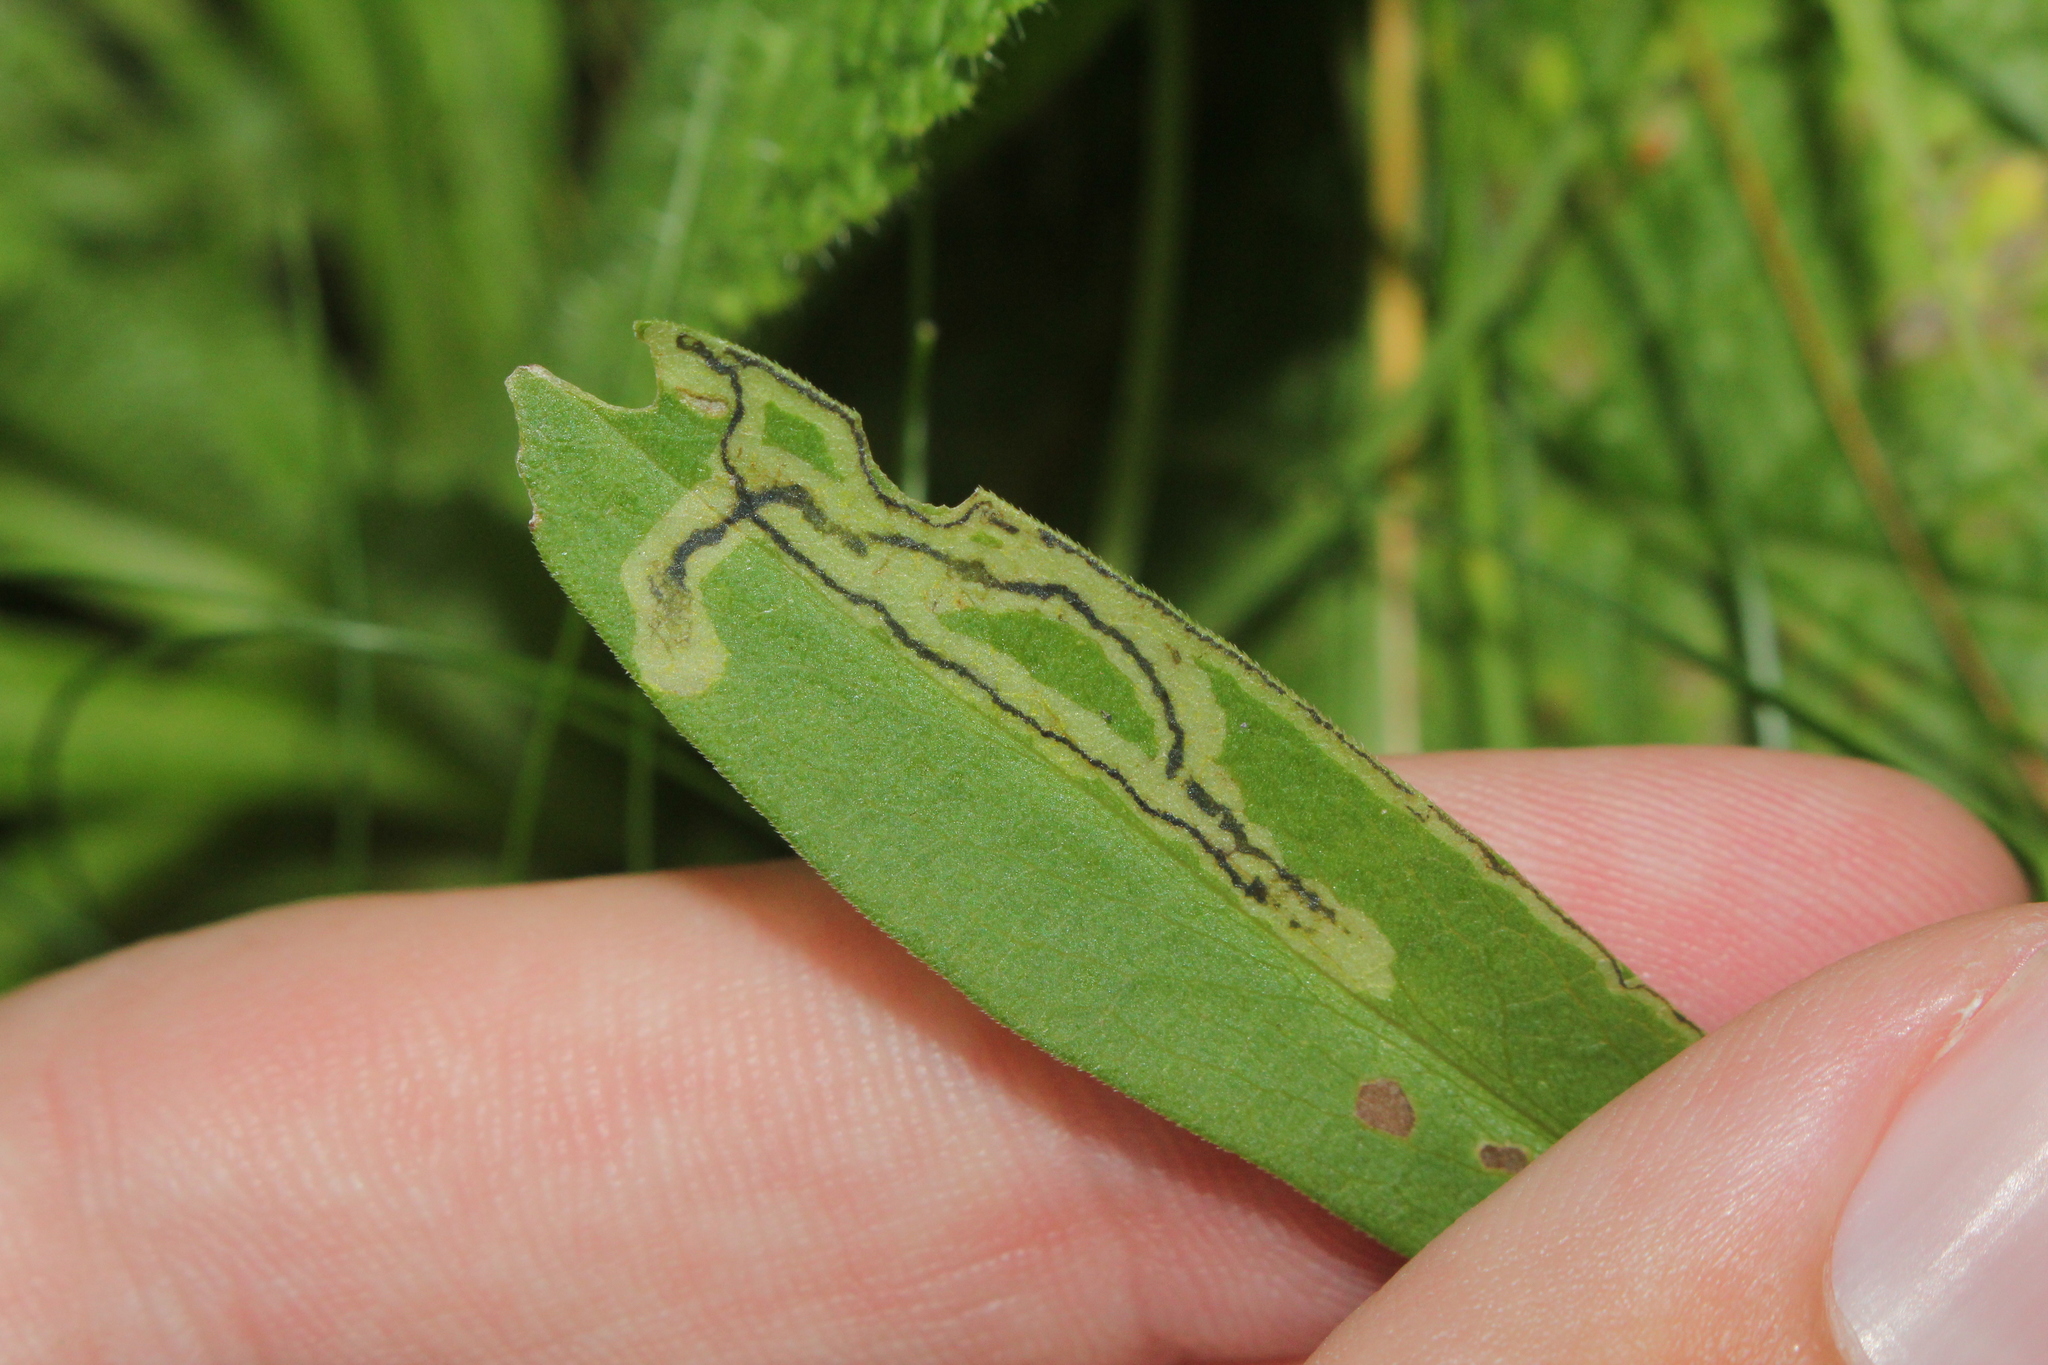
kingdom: Animalia
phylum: Arthropoda
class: Insecta
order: Diptera
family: Agromyzidae
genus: Liriomyza
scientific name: Liriomyza eupatorii
